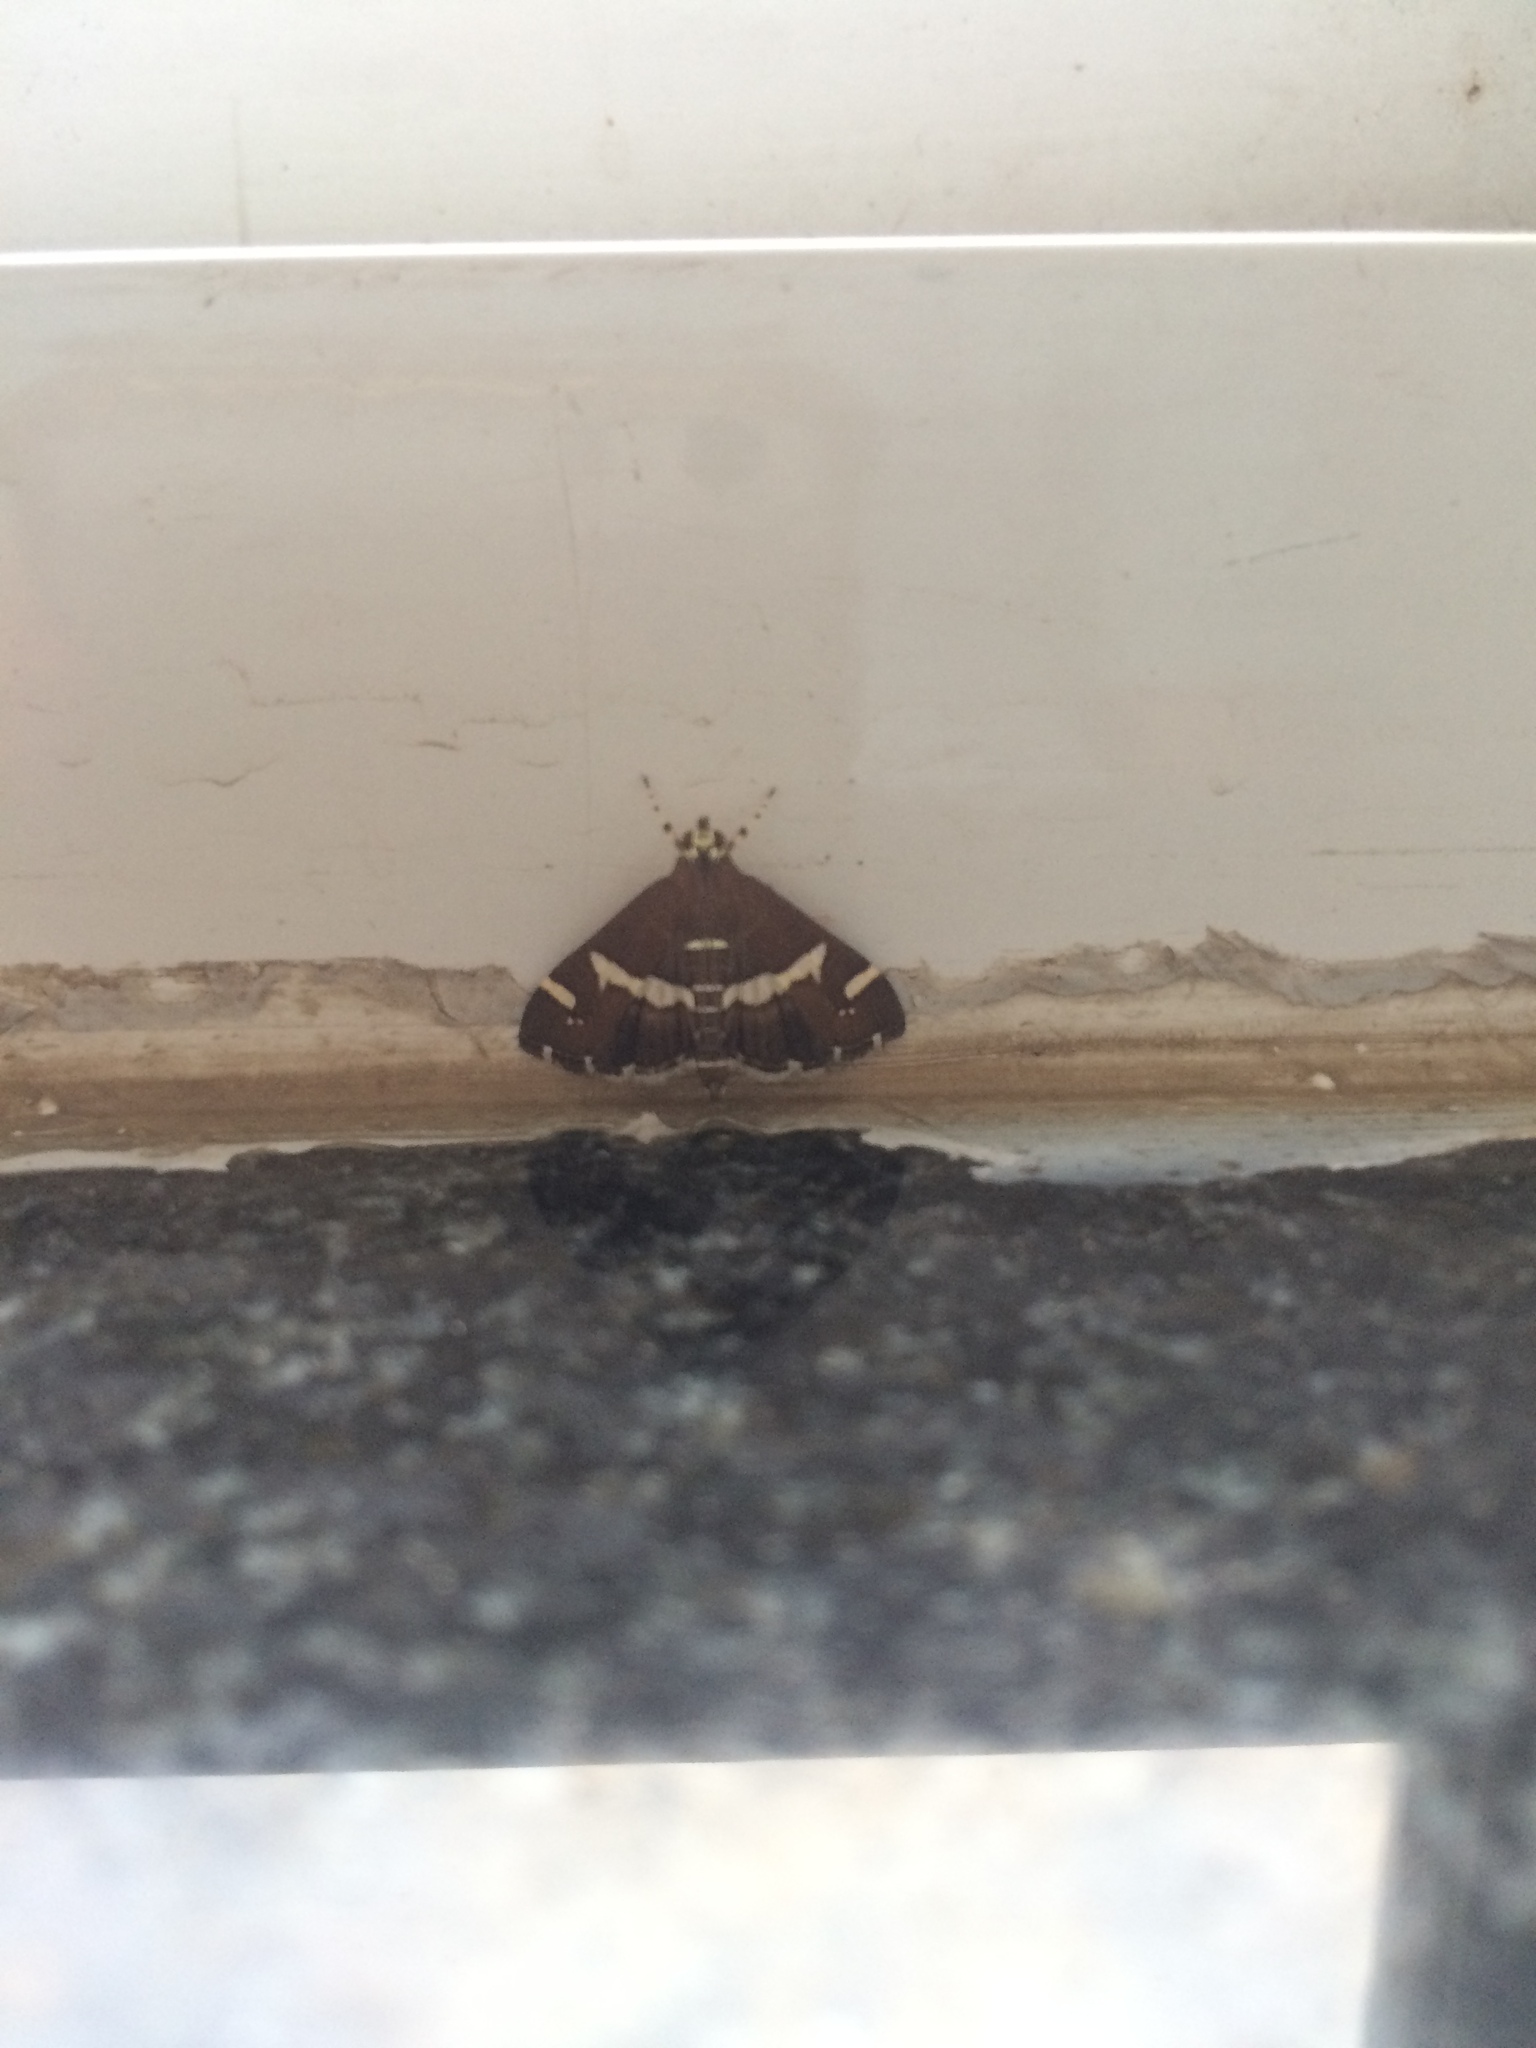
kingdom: Animalia
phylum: Arthropoda
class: Insecta
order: Lepidoptera
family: Crambidae
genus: Spoladea
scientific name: Spoladea recurvalis
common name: Beet webworm moth
